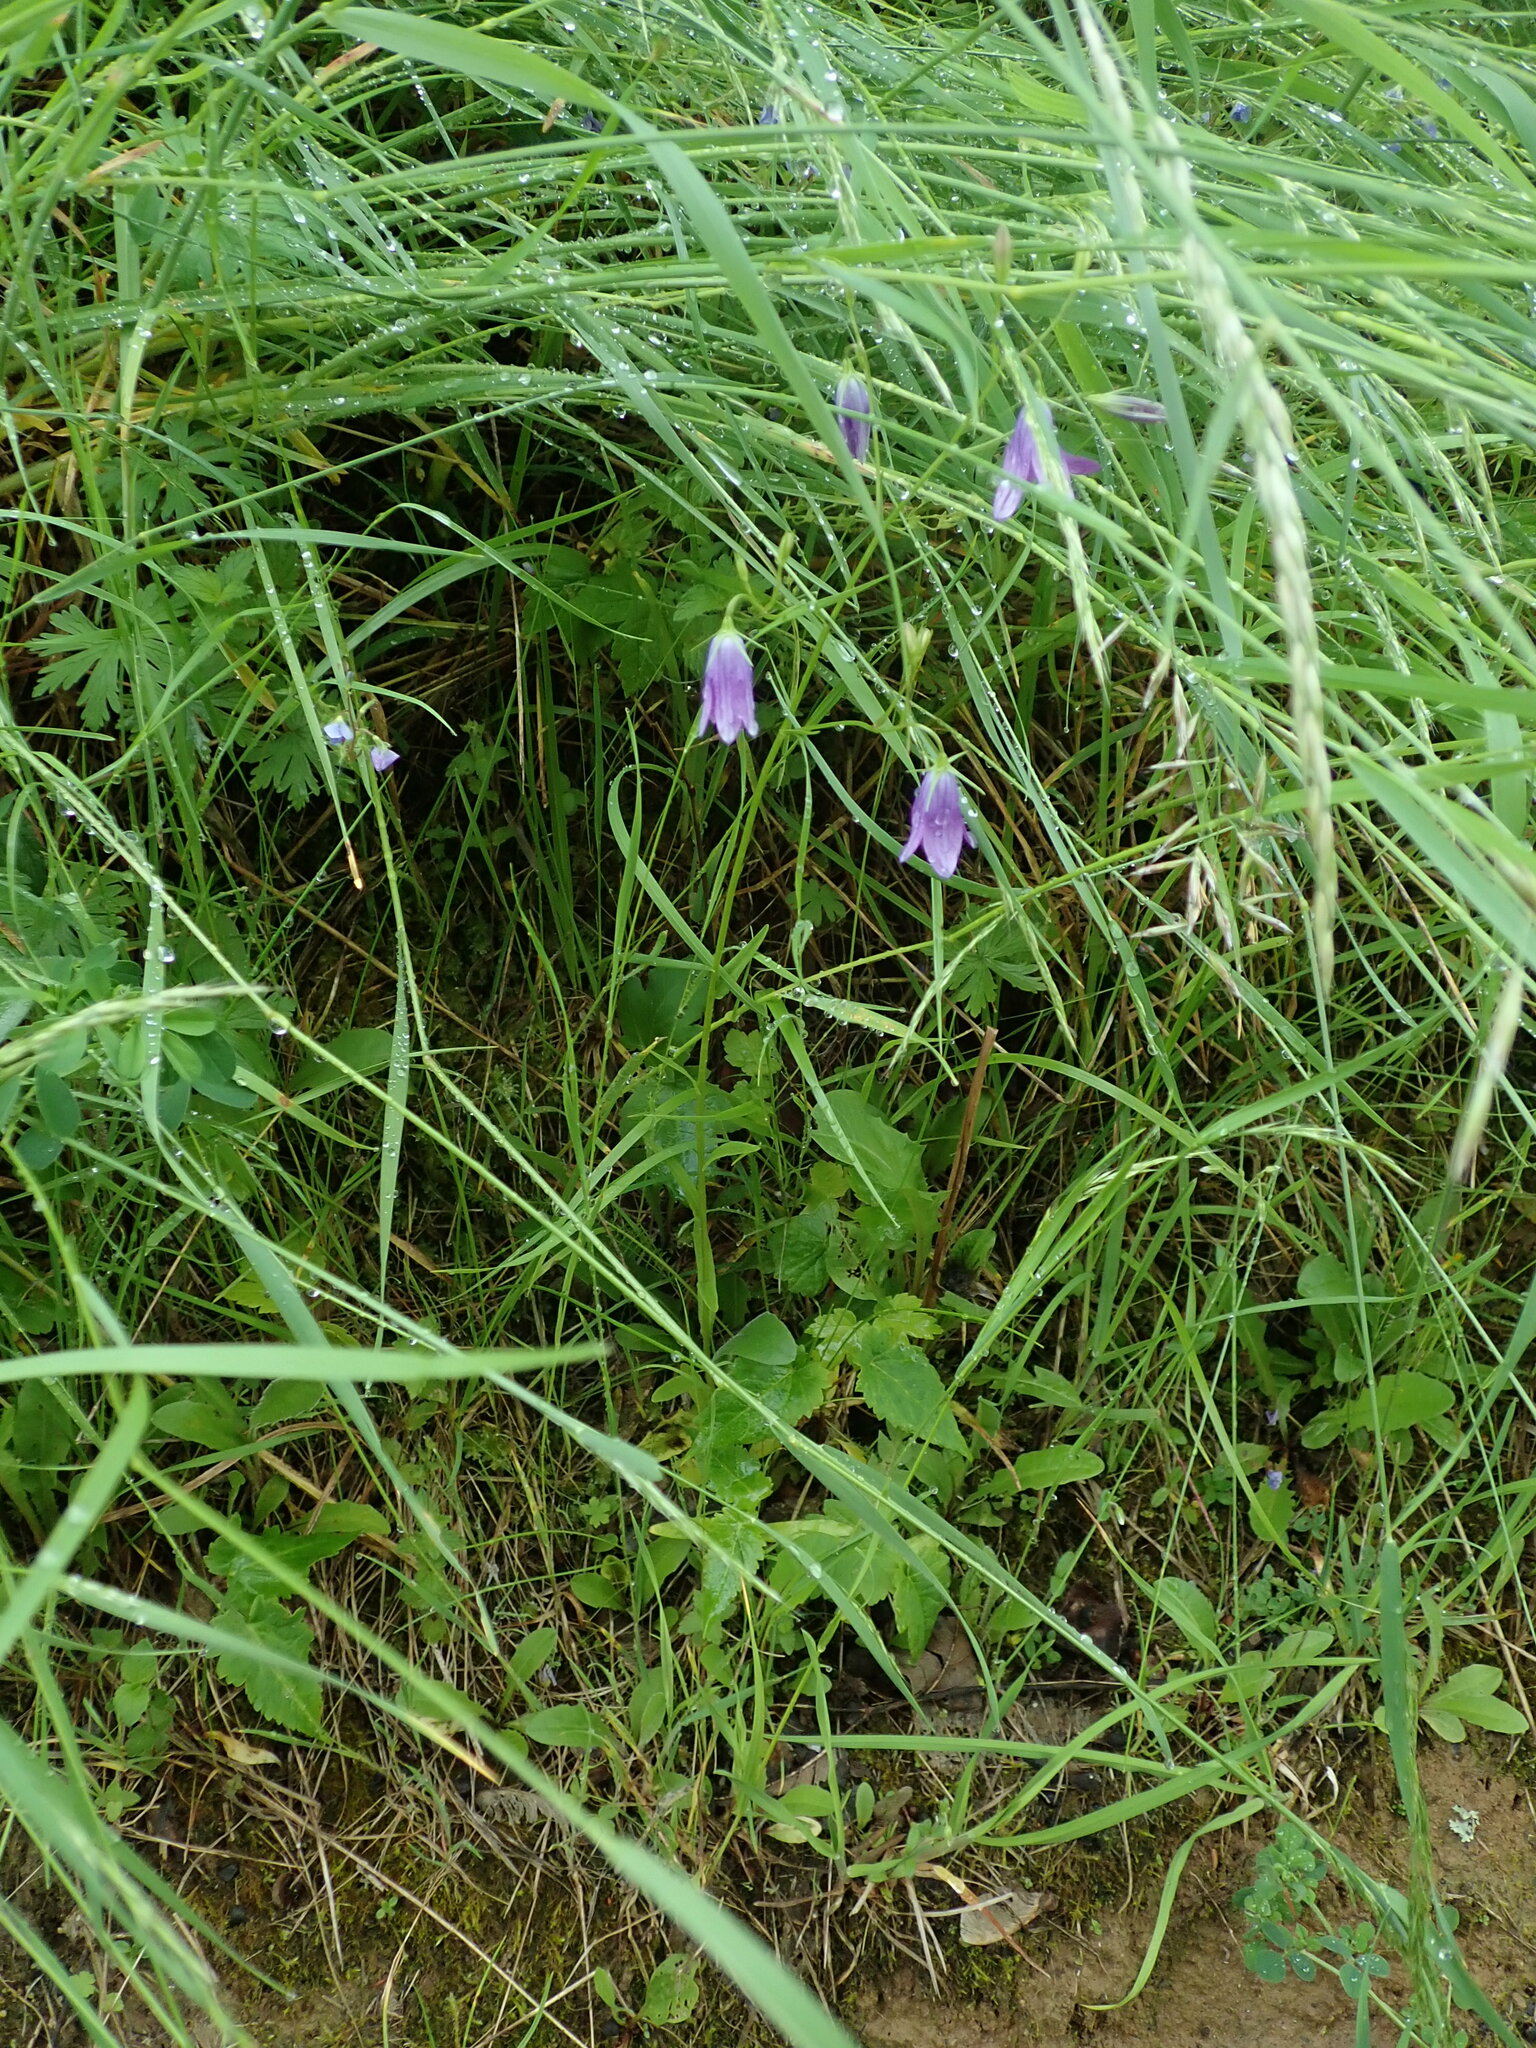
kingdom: Plantae
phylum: Tracheophyta
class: Magnoliopsida
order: Asterales
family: Campanulaceae
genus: Campanula
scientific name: Campanula patula
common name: Spreading bellflower
